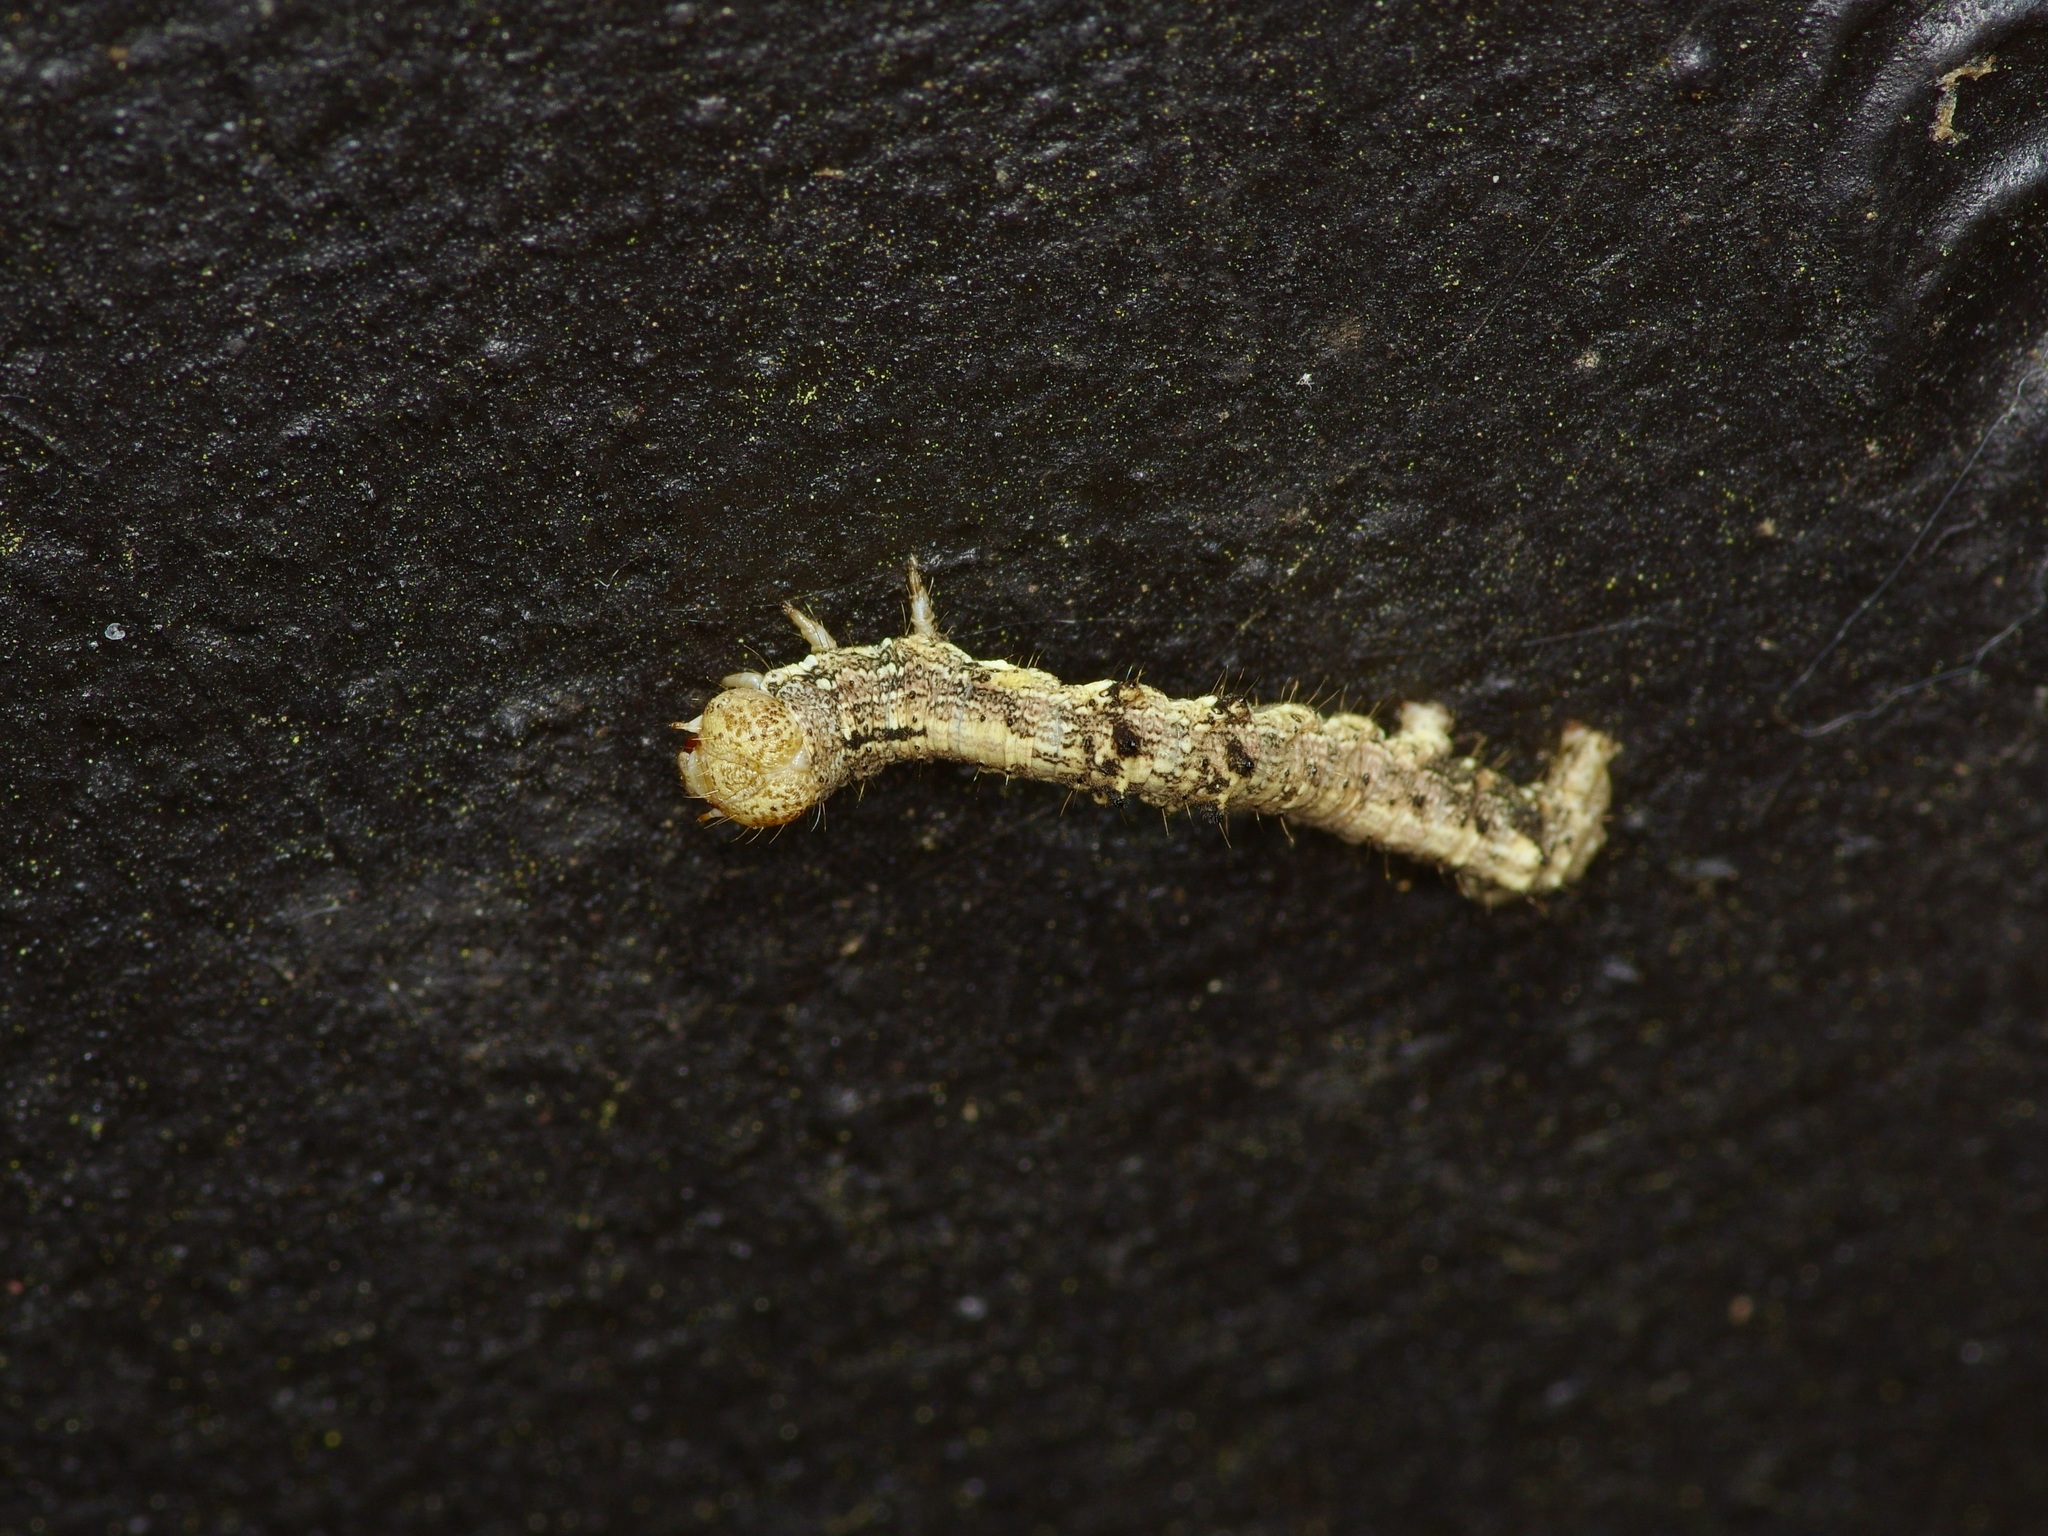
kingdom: Animalia
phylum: Arthropoda
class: Insecta
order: Lepidoptera
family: Geometridae
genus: Phigalia
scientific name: Phigalia strigataria
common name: Small phigalia
